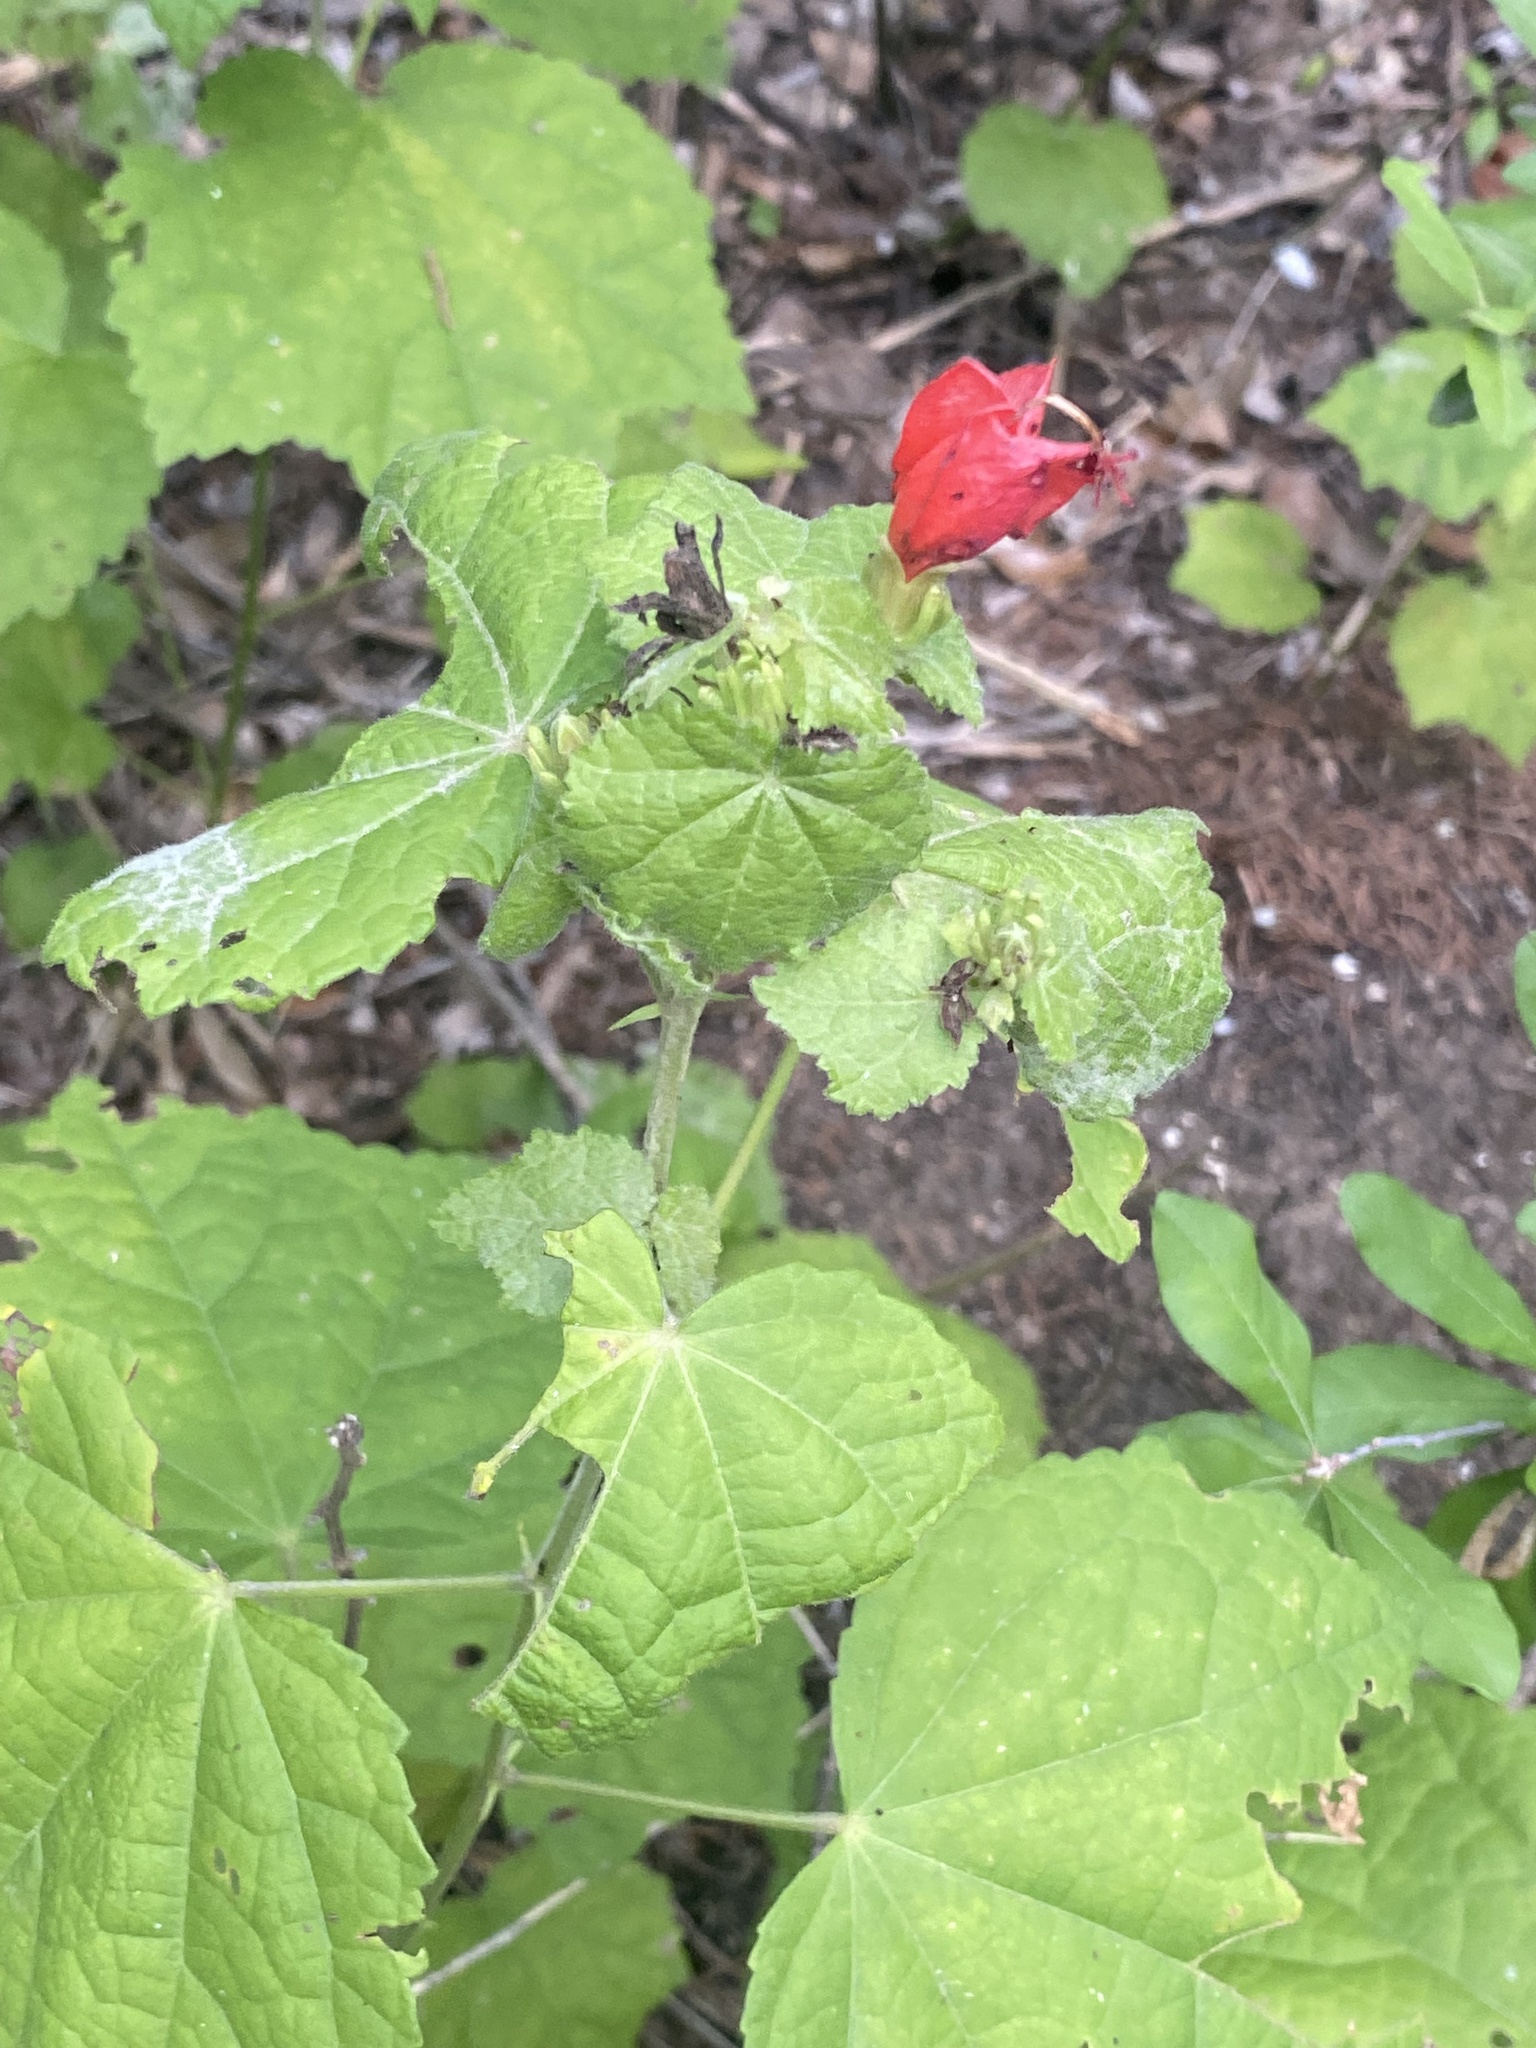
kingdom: Plantae
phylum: Tracheophyta
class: Magnoliopsida
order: Malvales
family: Malvaceae
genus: Malvaviscus
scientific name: Malvaviscus arboreus
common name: Wax mallow
